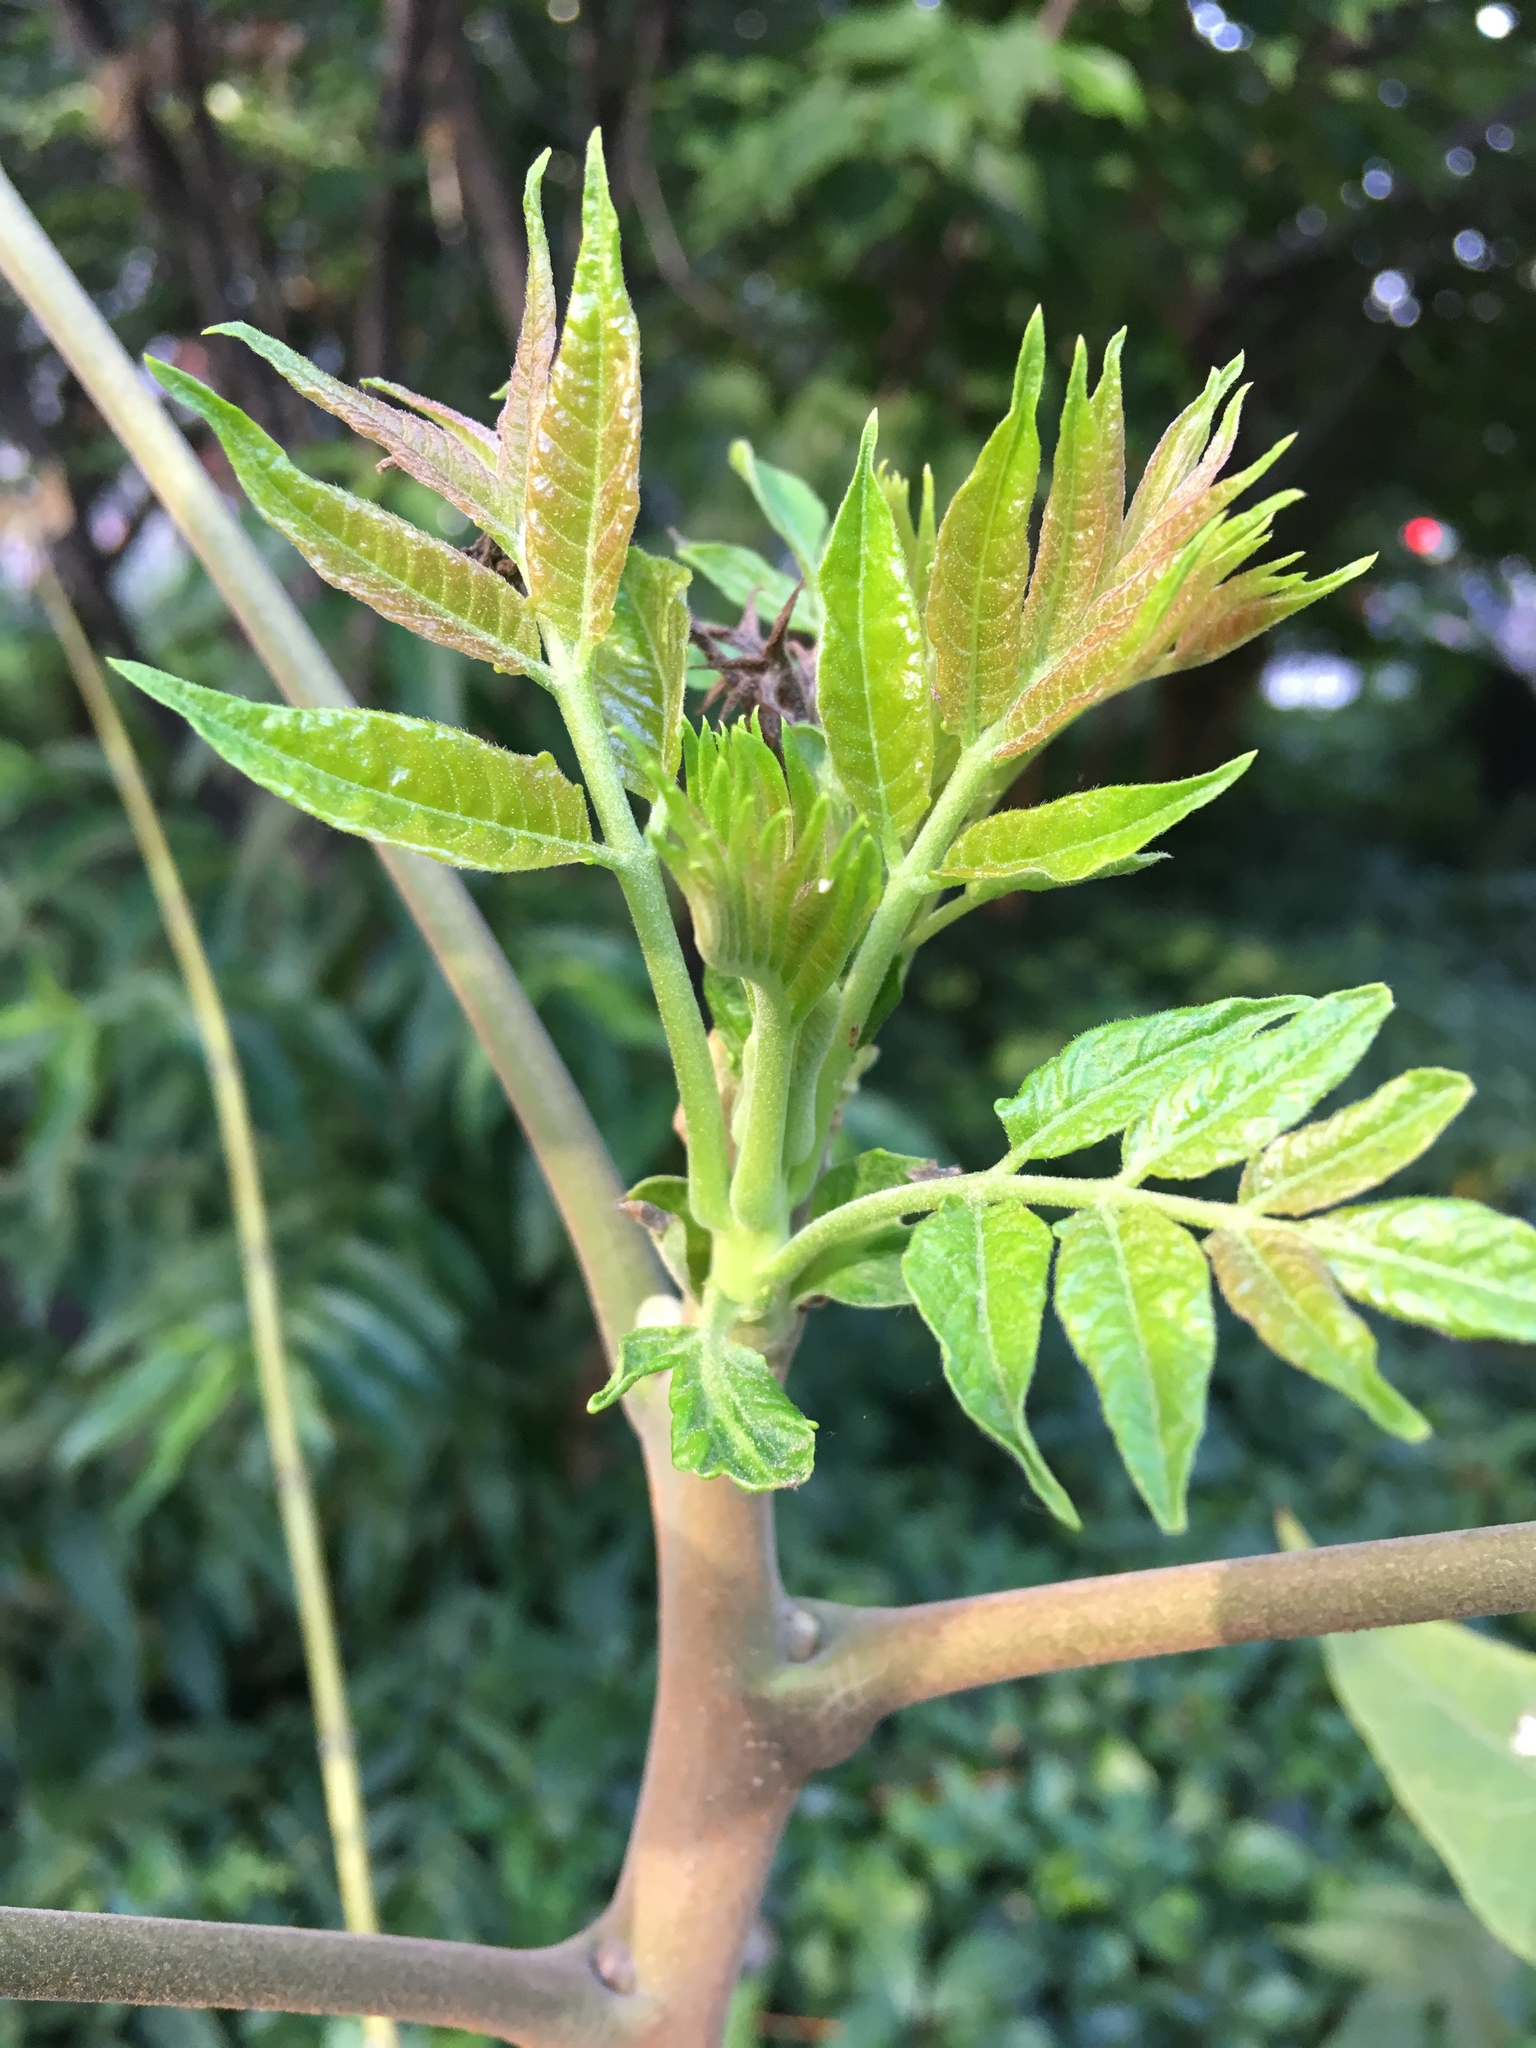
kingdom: Plantae
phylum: Tracheophyta
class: Magnoliopsida
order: Sapindales
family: Simaroubaceae
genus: Ailanthus
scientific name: Ailanthus altissima
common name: Tree-of-heaven
